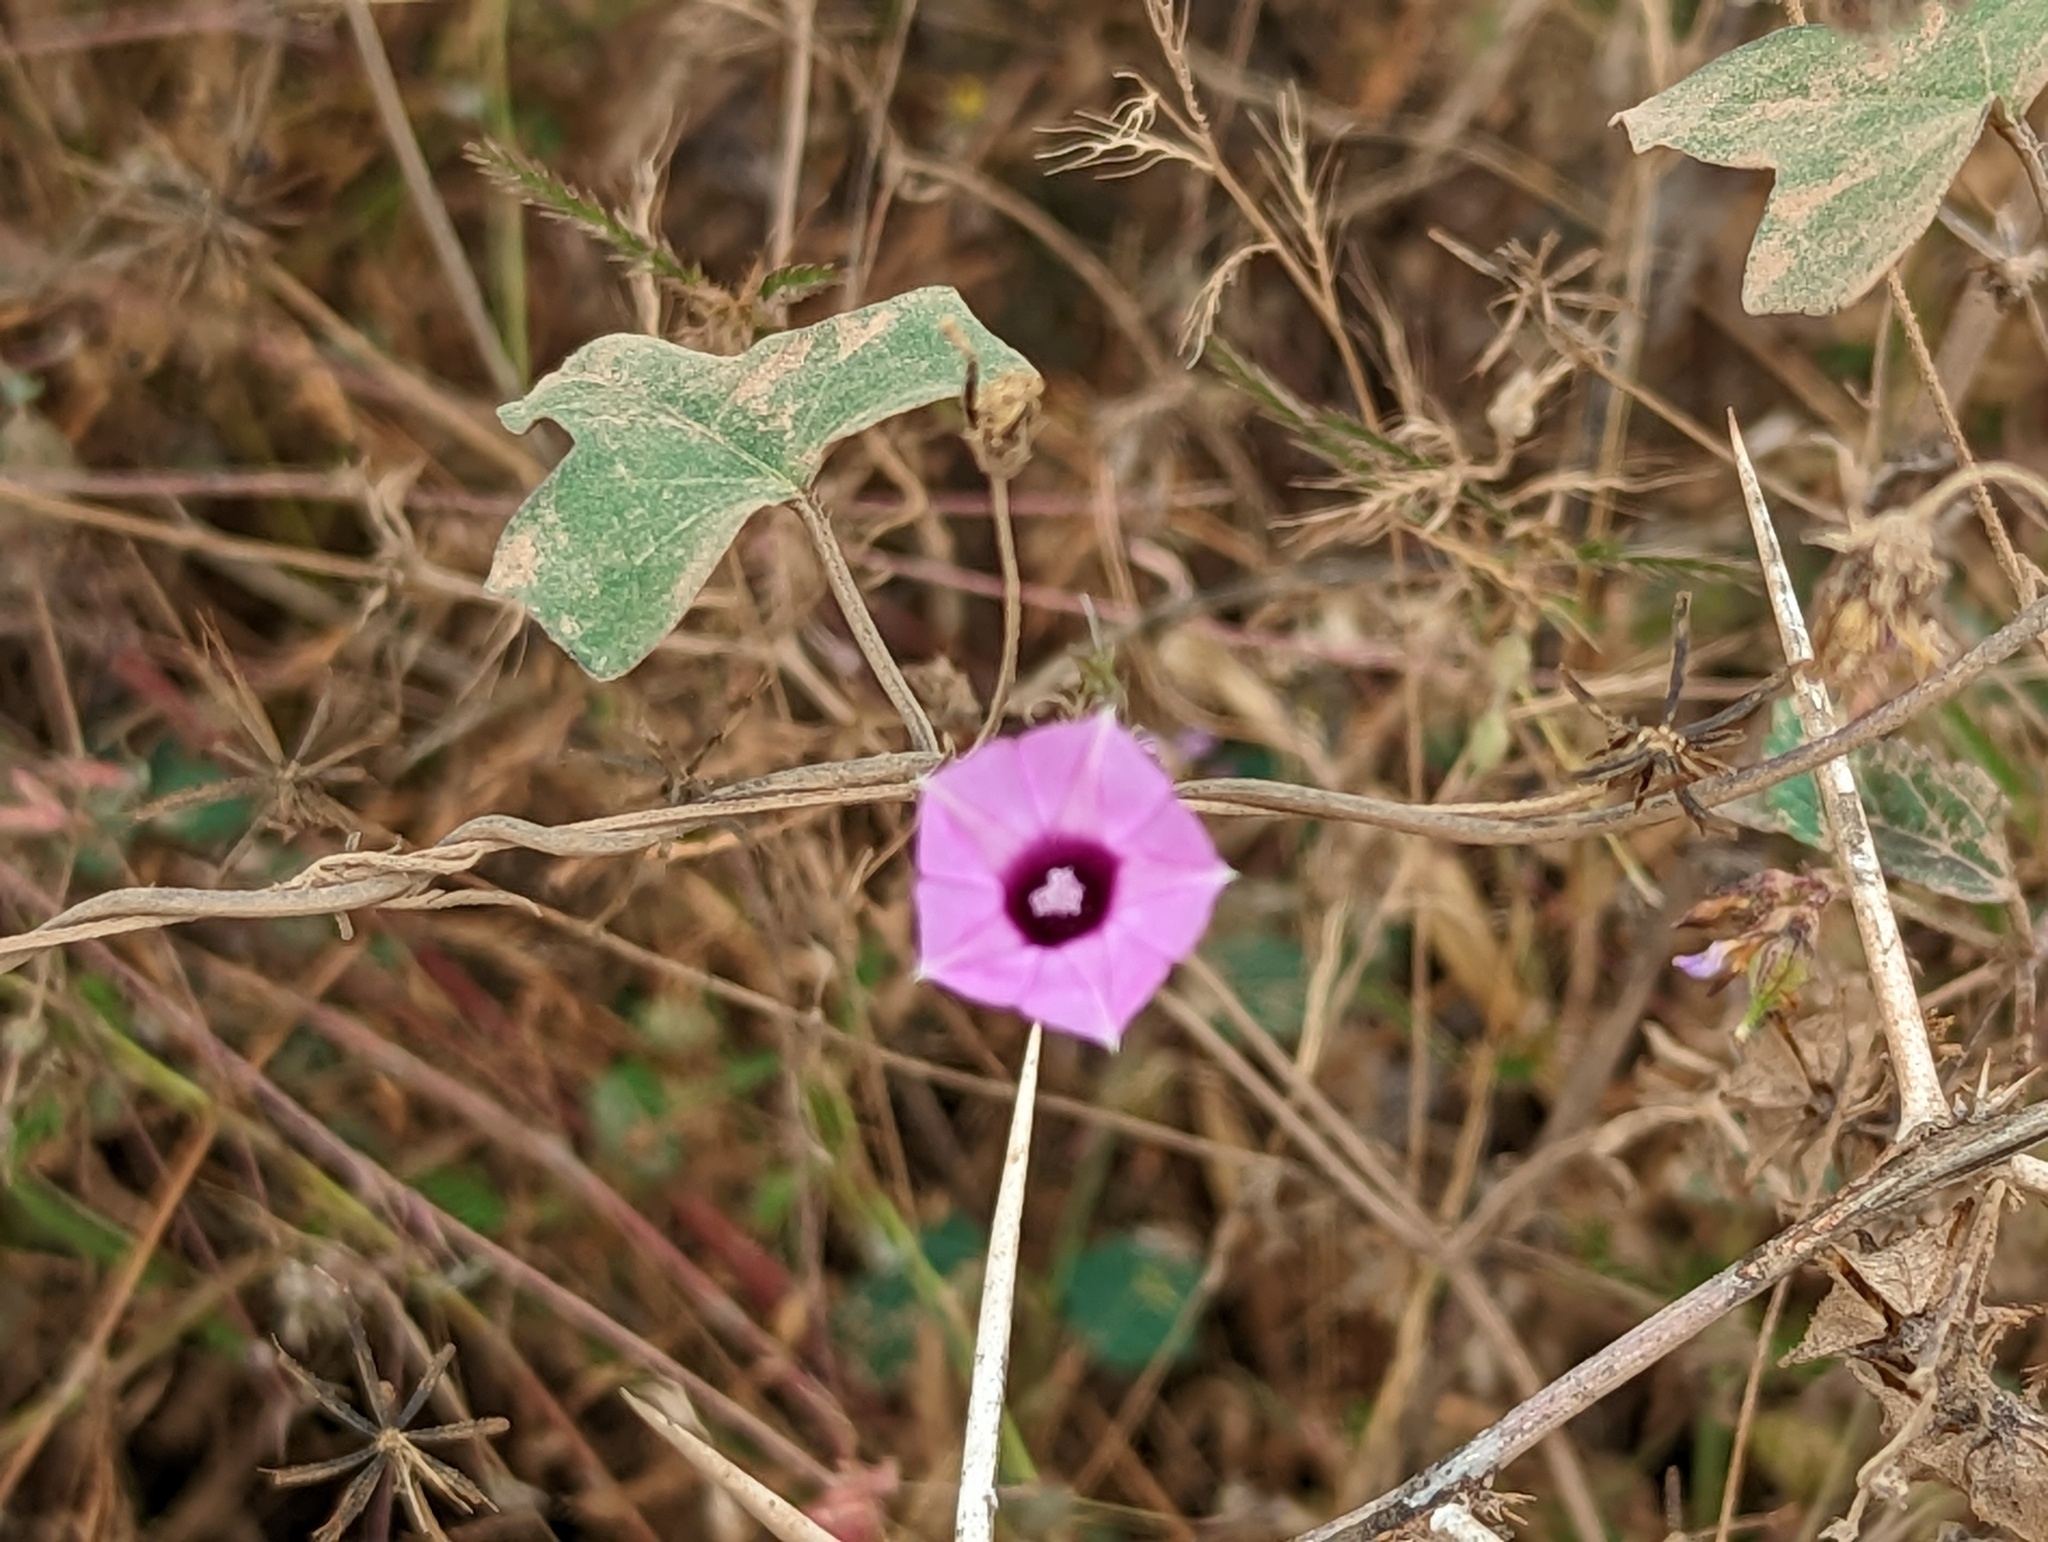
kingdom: Plantae
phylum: Tracheophyta
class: Magnoliopsida
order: Solanales
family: Convolvulaceae
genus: Ipomoea
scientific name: Ipomoea triloba
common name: Little-bell
